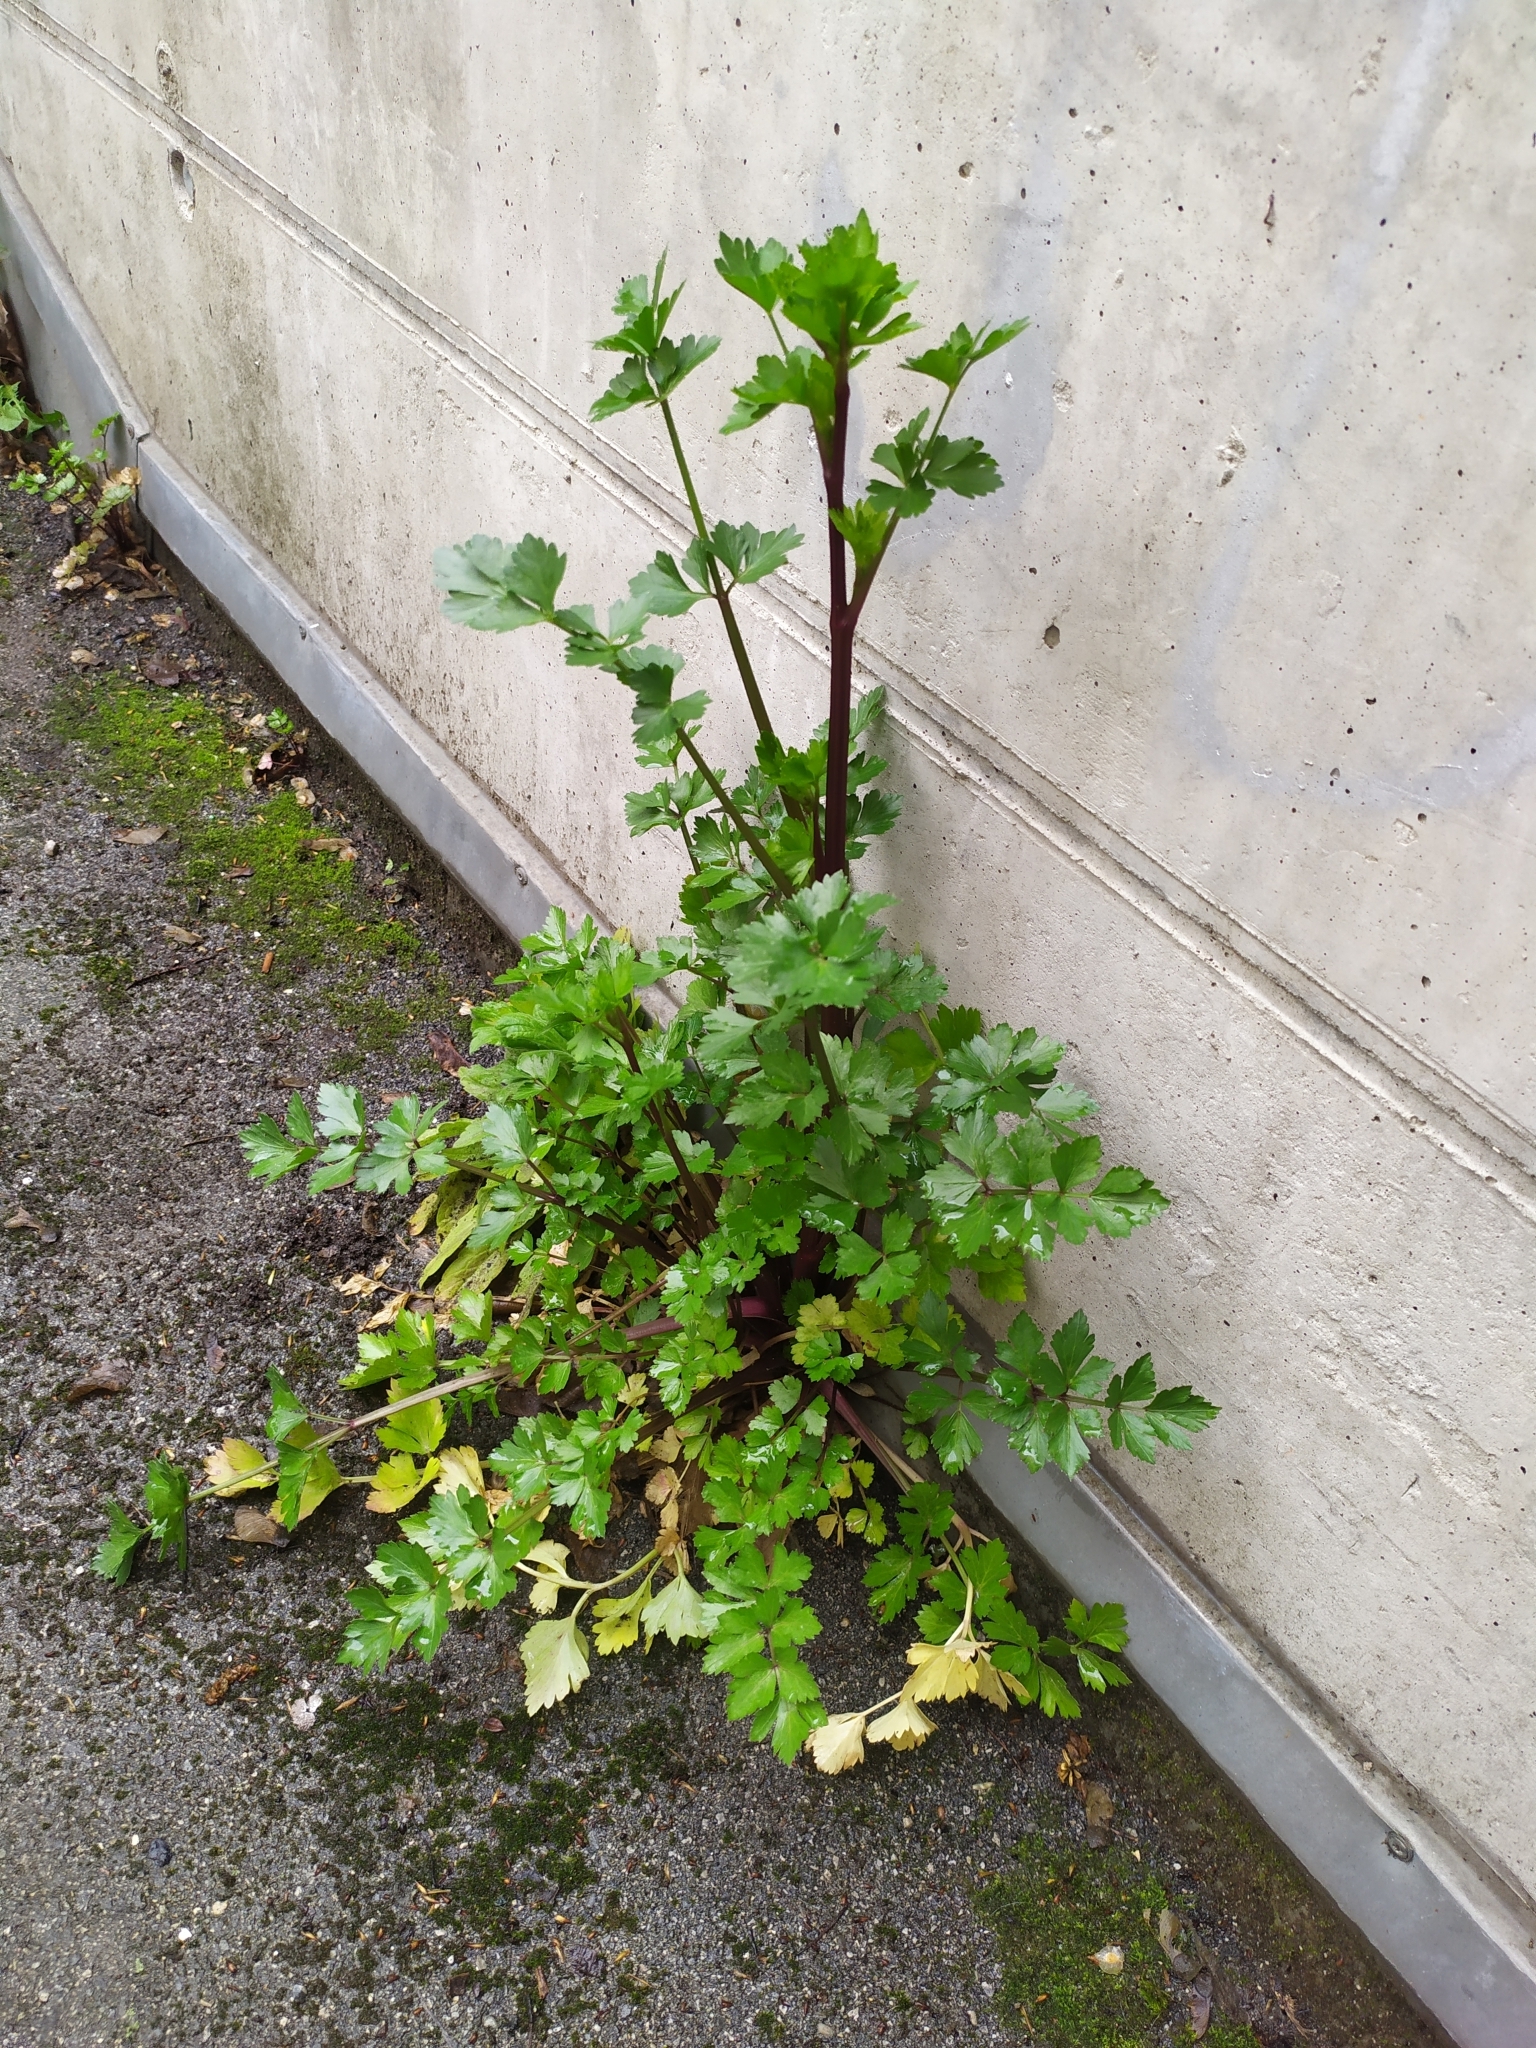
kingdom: Plantae
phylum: Tracheophyta
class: Magnoliopsida
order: Apiales
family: Apiaceae
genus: Apium
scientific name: Apium graveolens
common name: Wild celery
